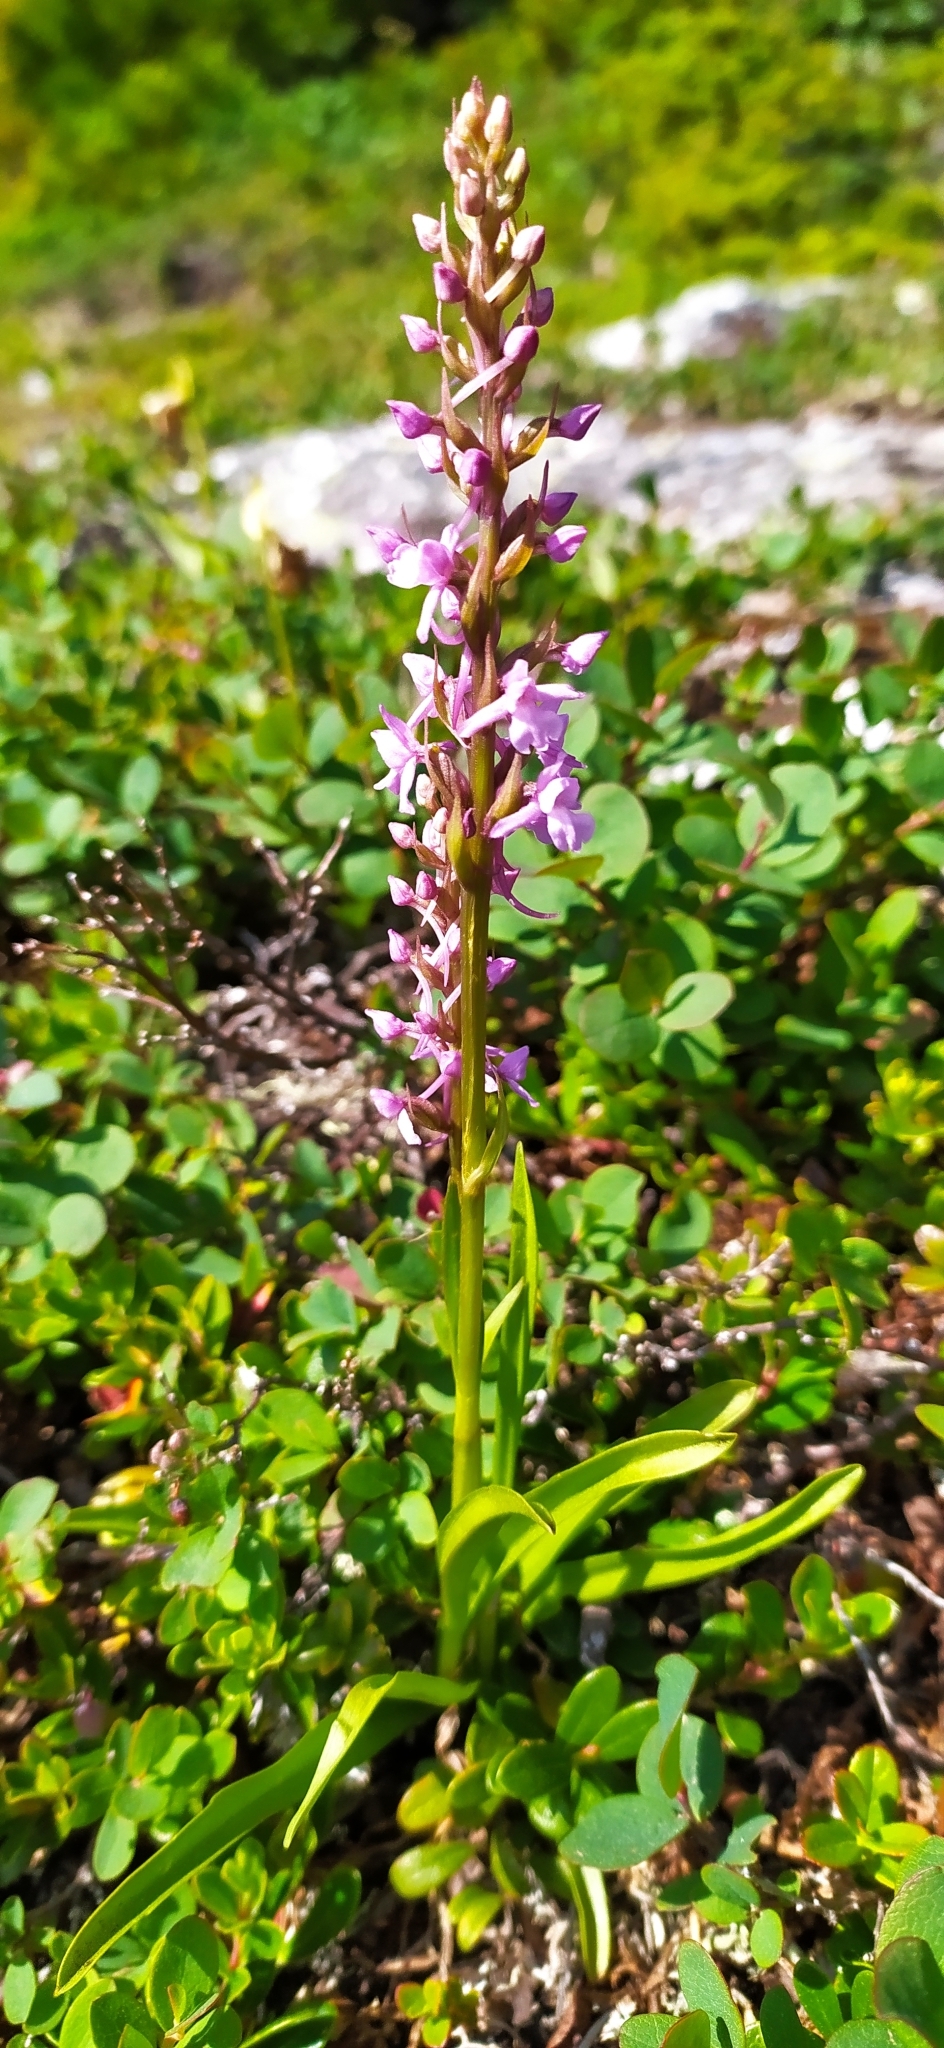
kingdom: Plantae
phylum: Tracheophyta
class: Liliopsida
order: Asparagales
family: Orchidaceae
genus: Gymnadenia
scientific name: Gymnadenia conopsea
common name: Fragrant orchid
